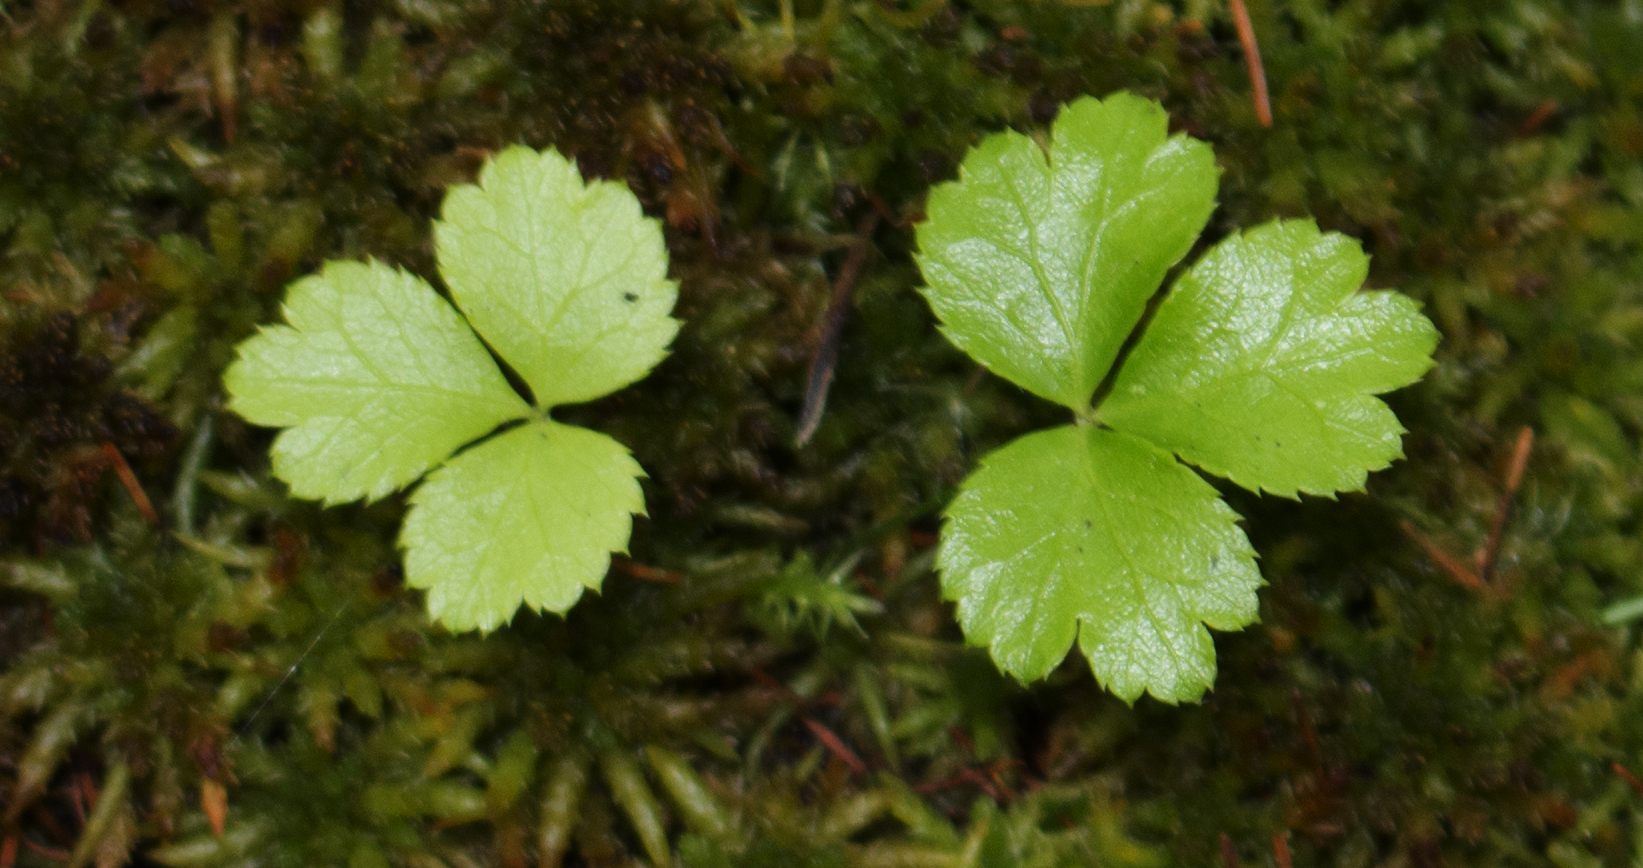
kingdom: Plantae
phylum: Tracheophyta
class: Magnoliopsida
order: Ranunculales
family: Ranunculaceae
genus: Coptis
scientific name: Coptis trifolia
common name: Canker-root
